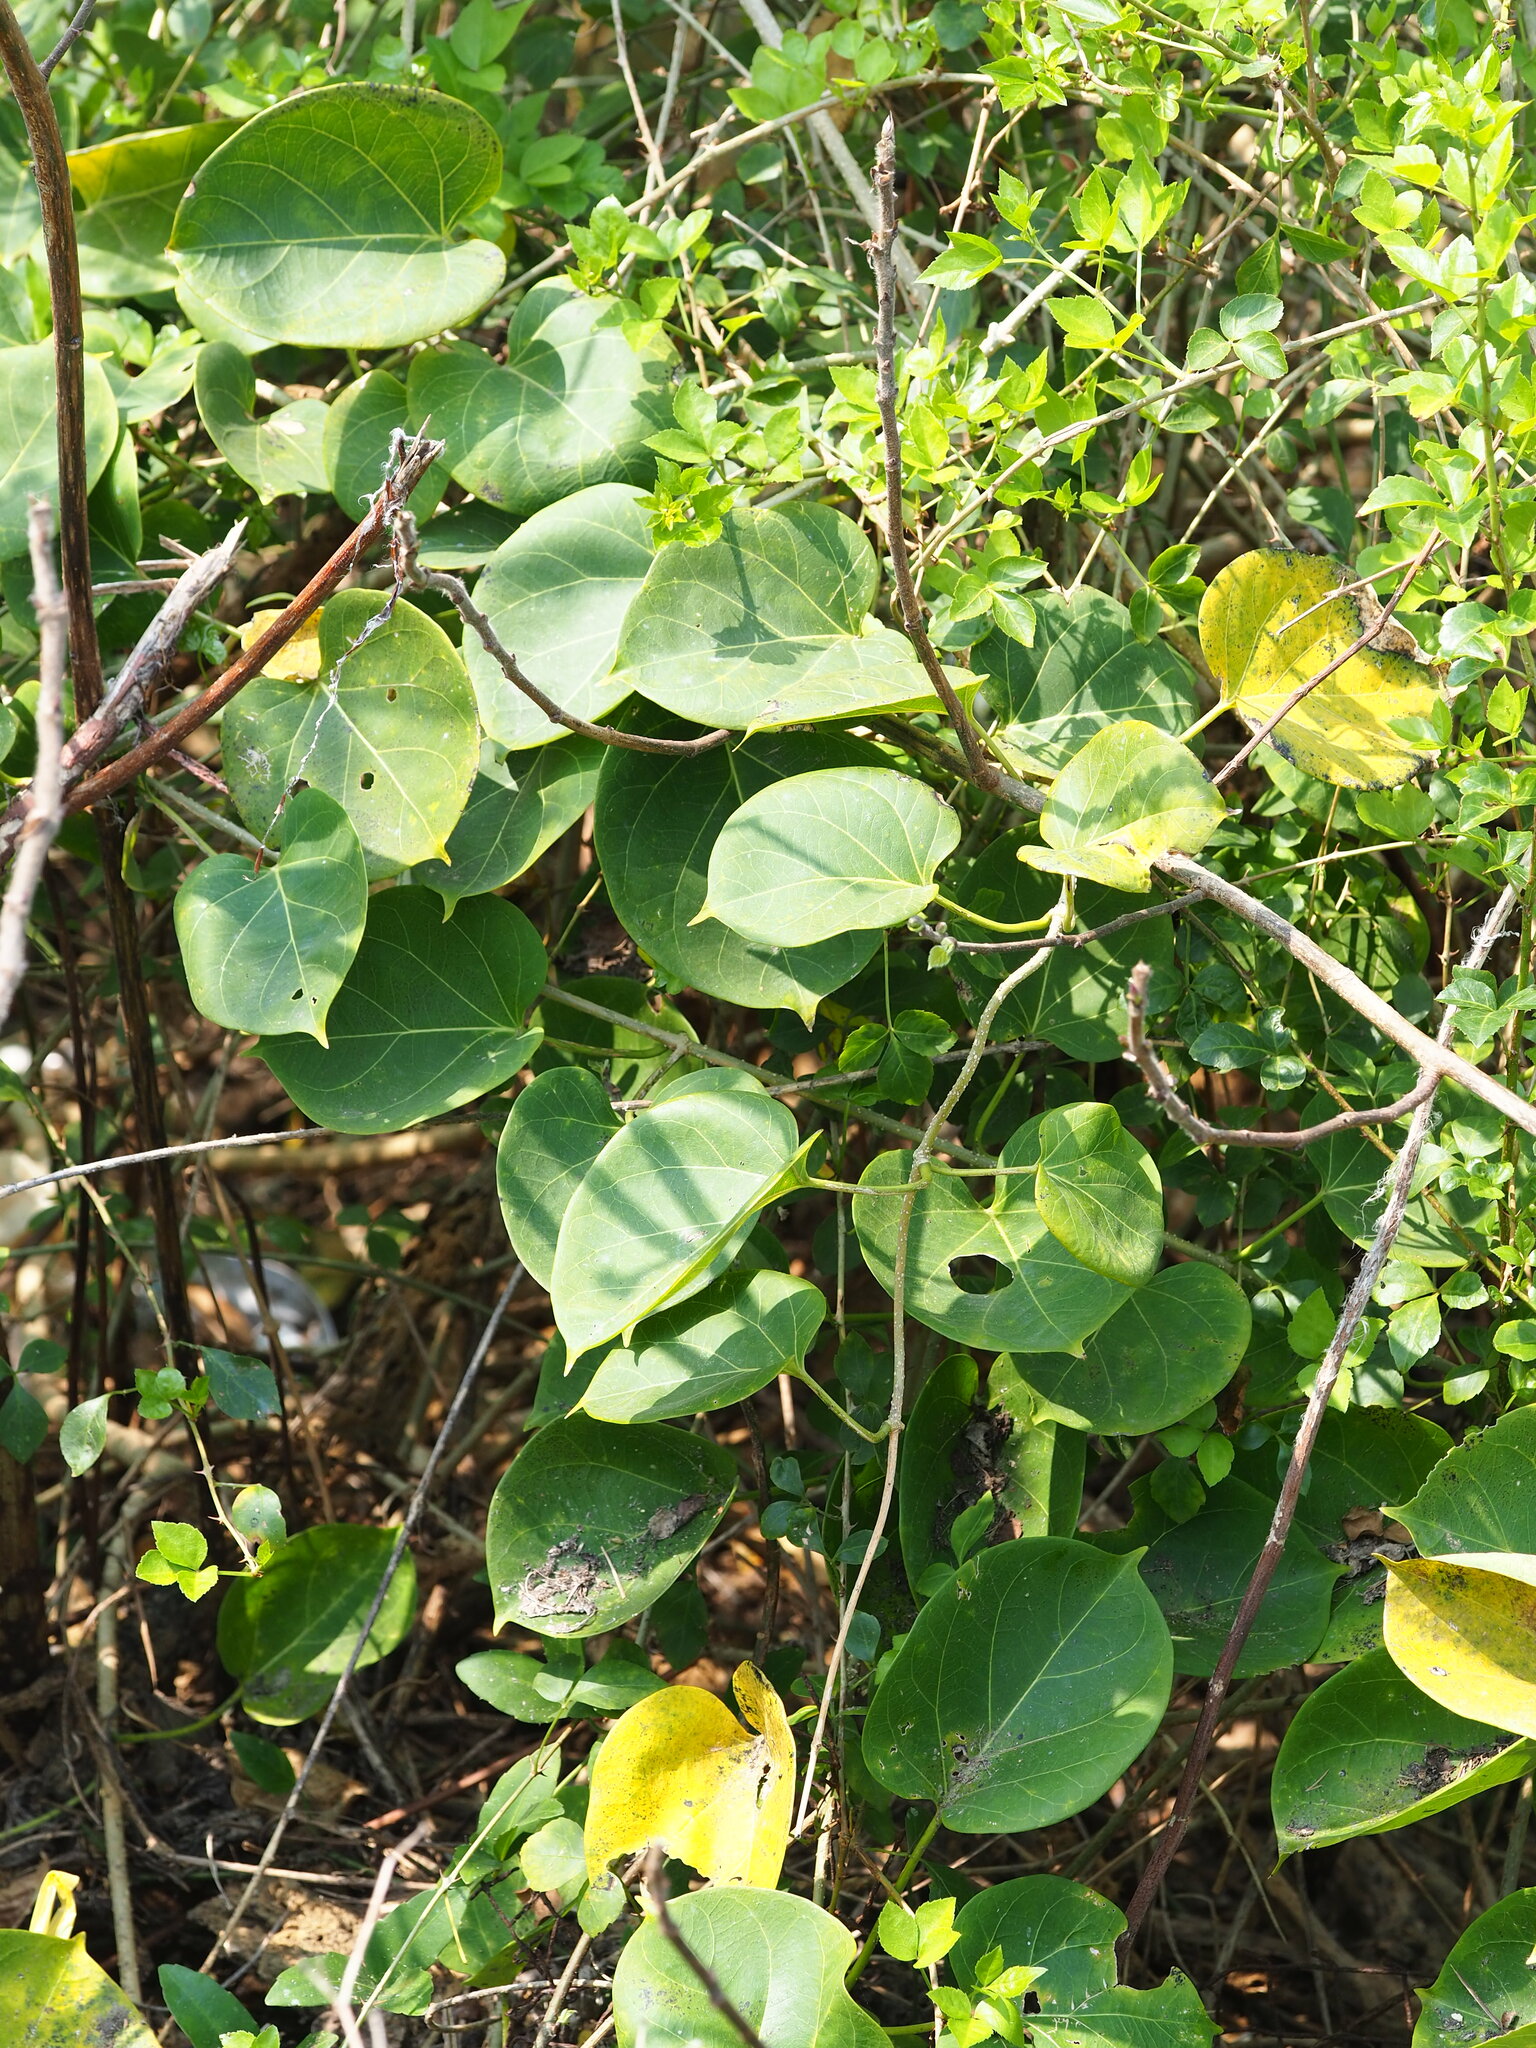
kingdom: Plantae
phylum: Tracheophyta
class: Magnoliopsida
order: Gentianales
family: Apocynaceae
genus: Stephanotis
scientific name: Stephanotis volubilis
